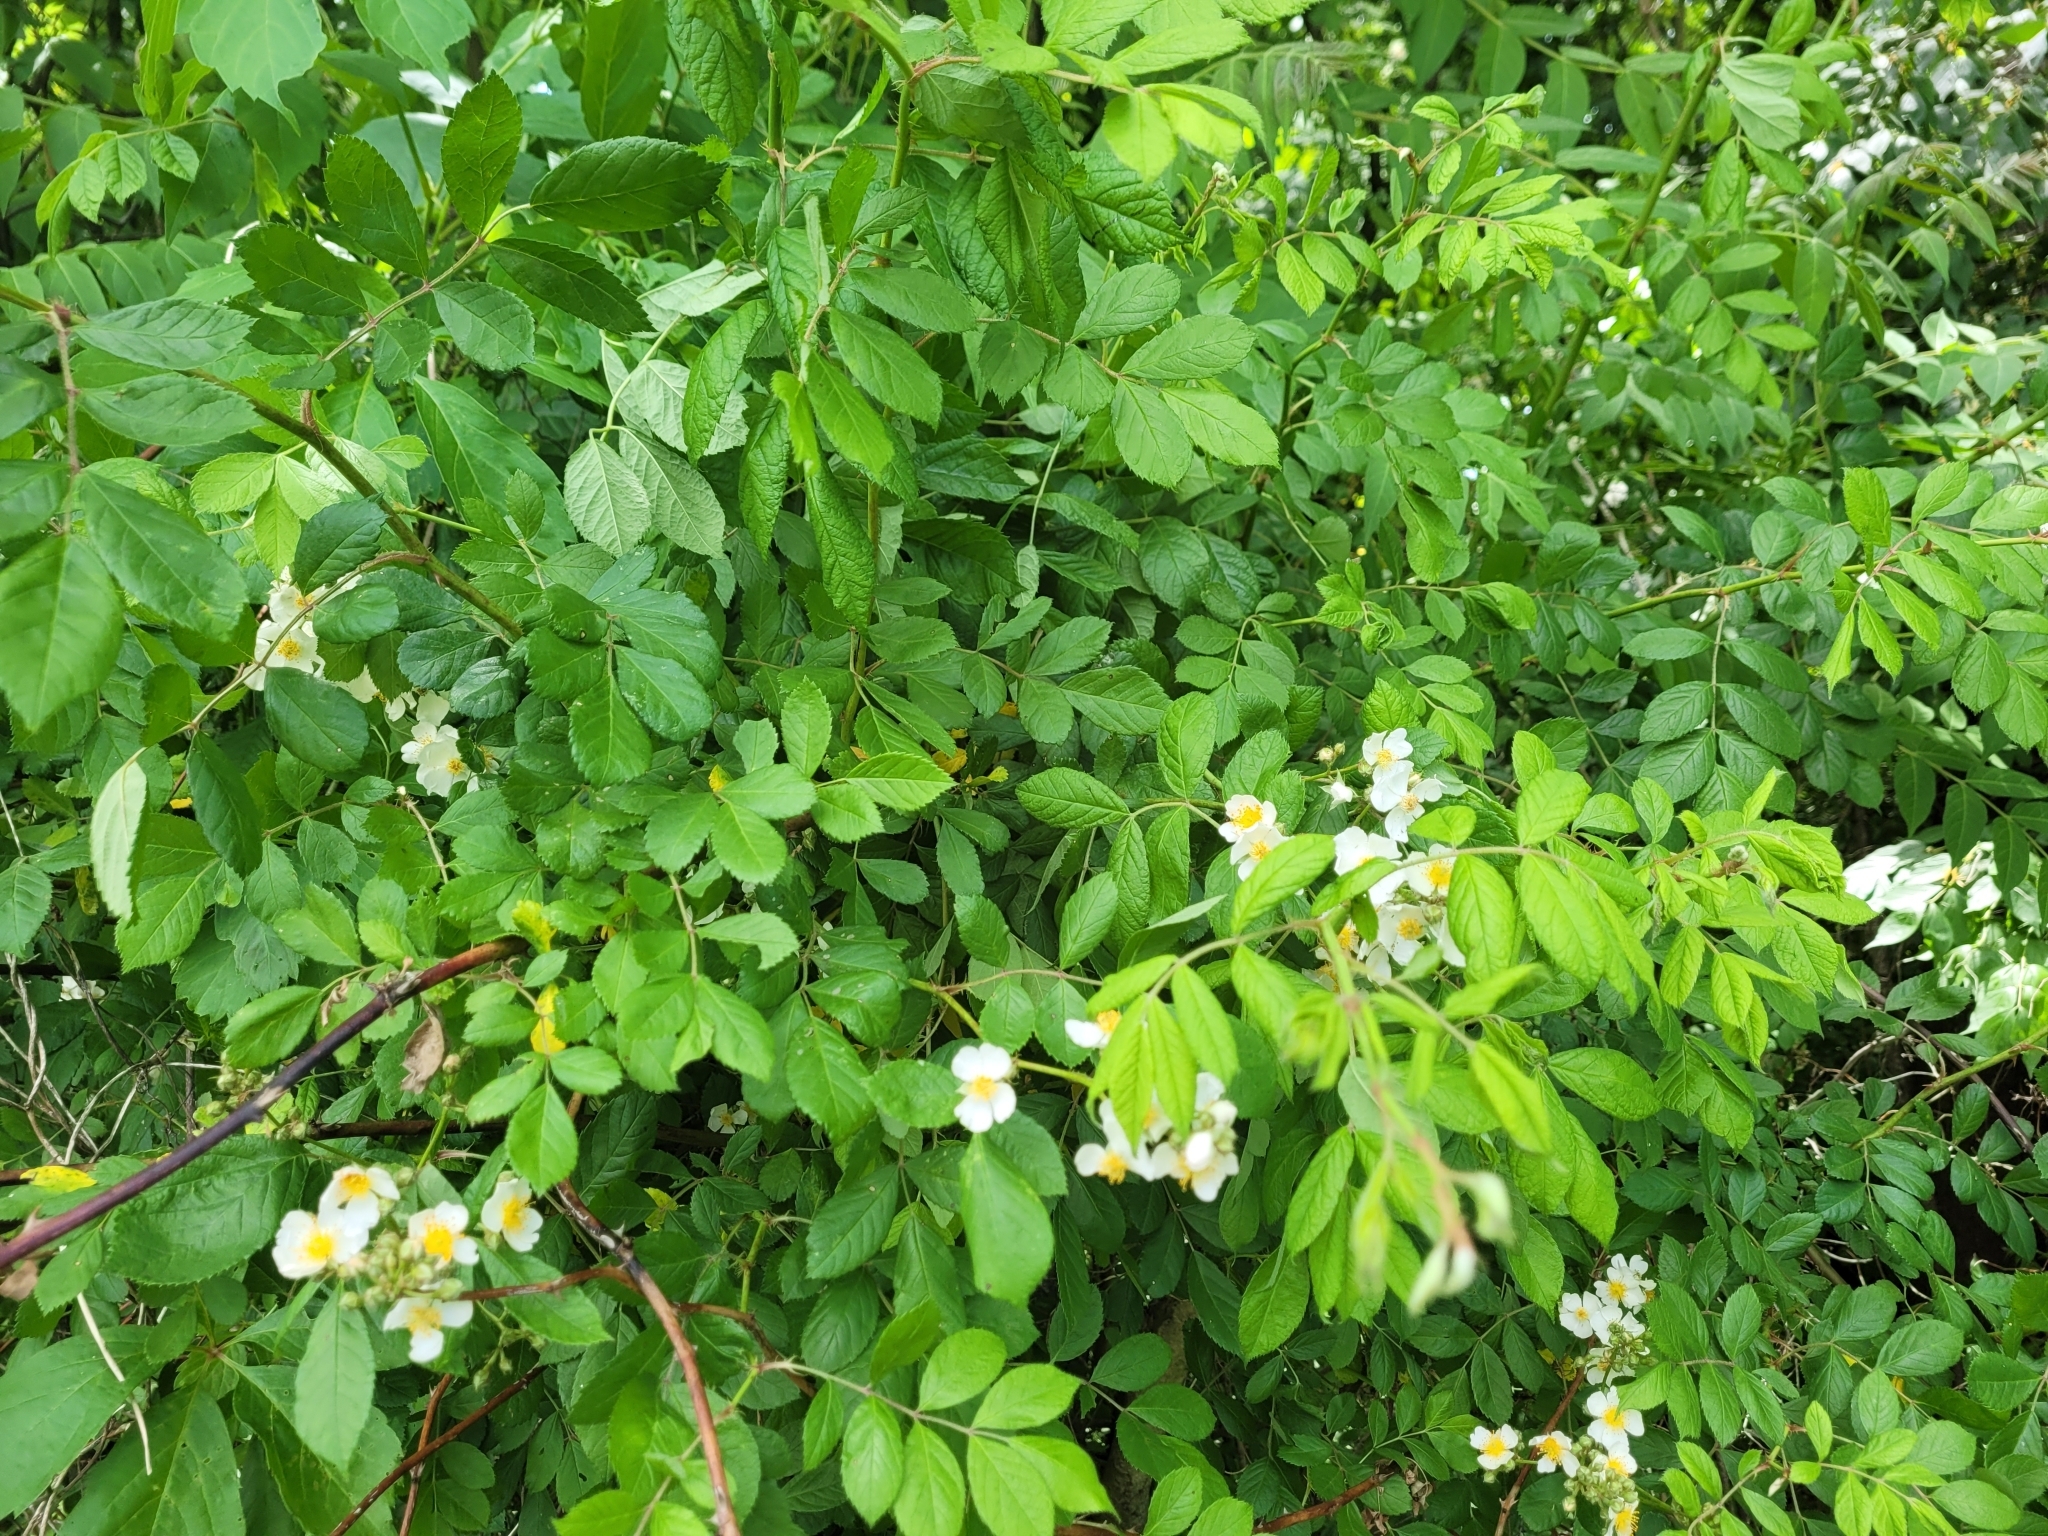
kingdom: Plantae
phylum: Tracheophyta
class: Magnoliopsida
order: Rosales
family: Rosaceae
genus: Rosa
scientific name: Rosa multiflora
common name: Multiflora rose
